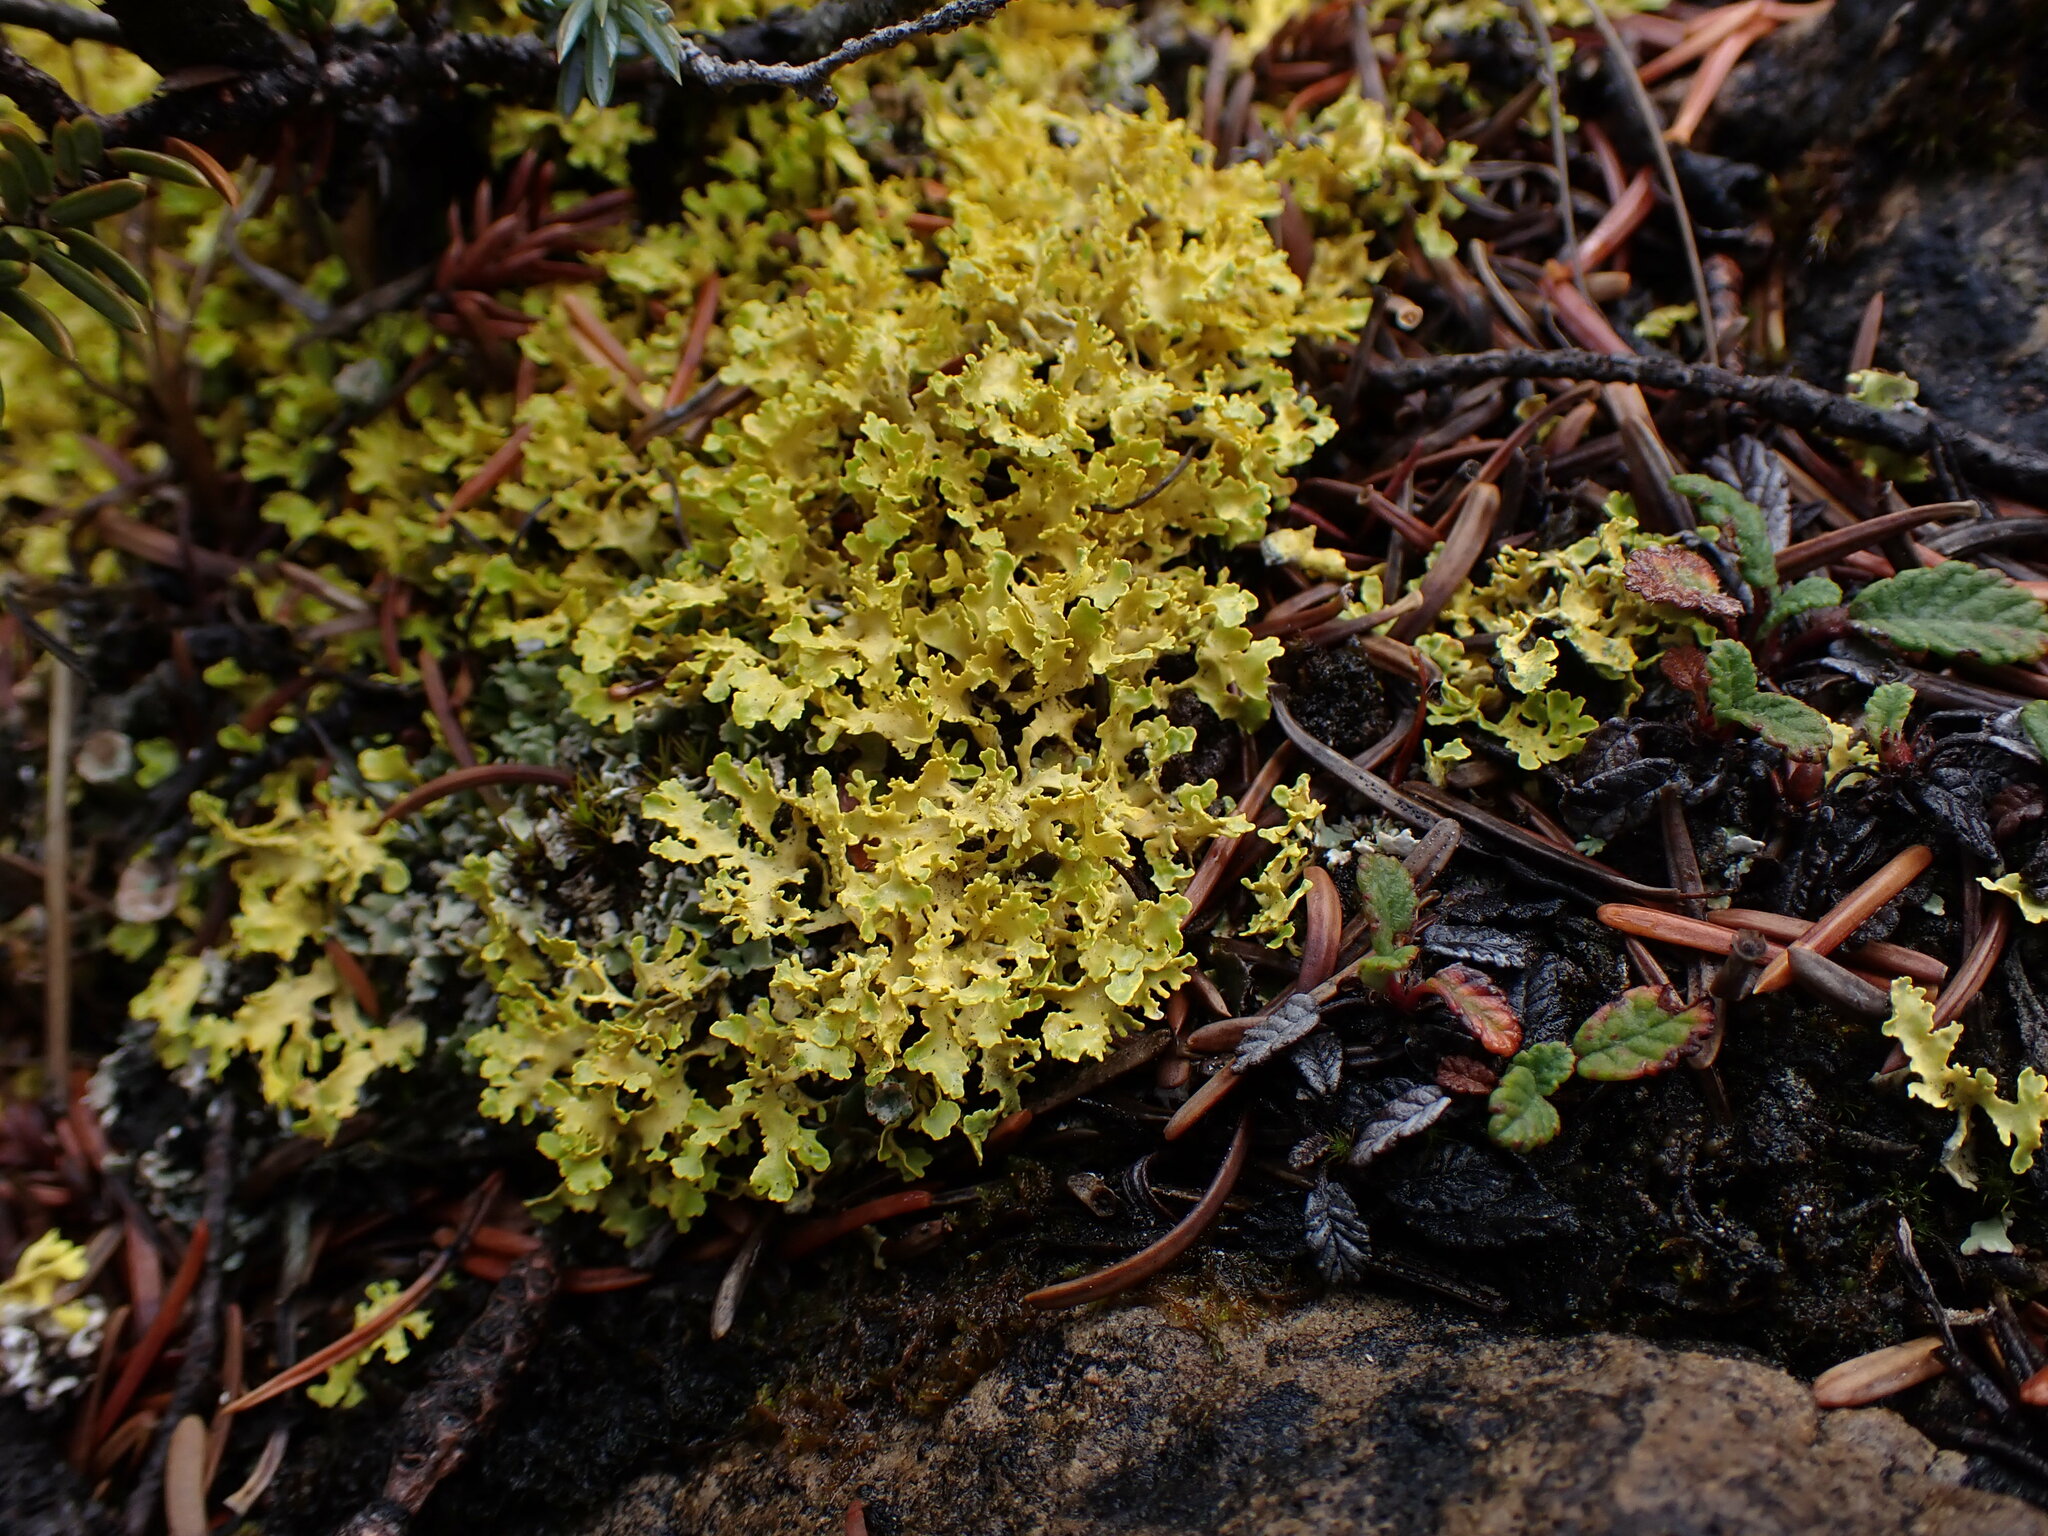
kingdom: Fungi
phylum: Ascomycota
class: Lecanoromycetes
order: Lecanorales
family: Parmeliaceae
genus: Vulpicida
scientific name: Vulpicida juniperinus
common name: Yellow lichen
